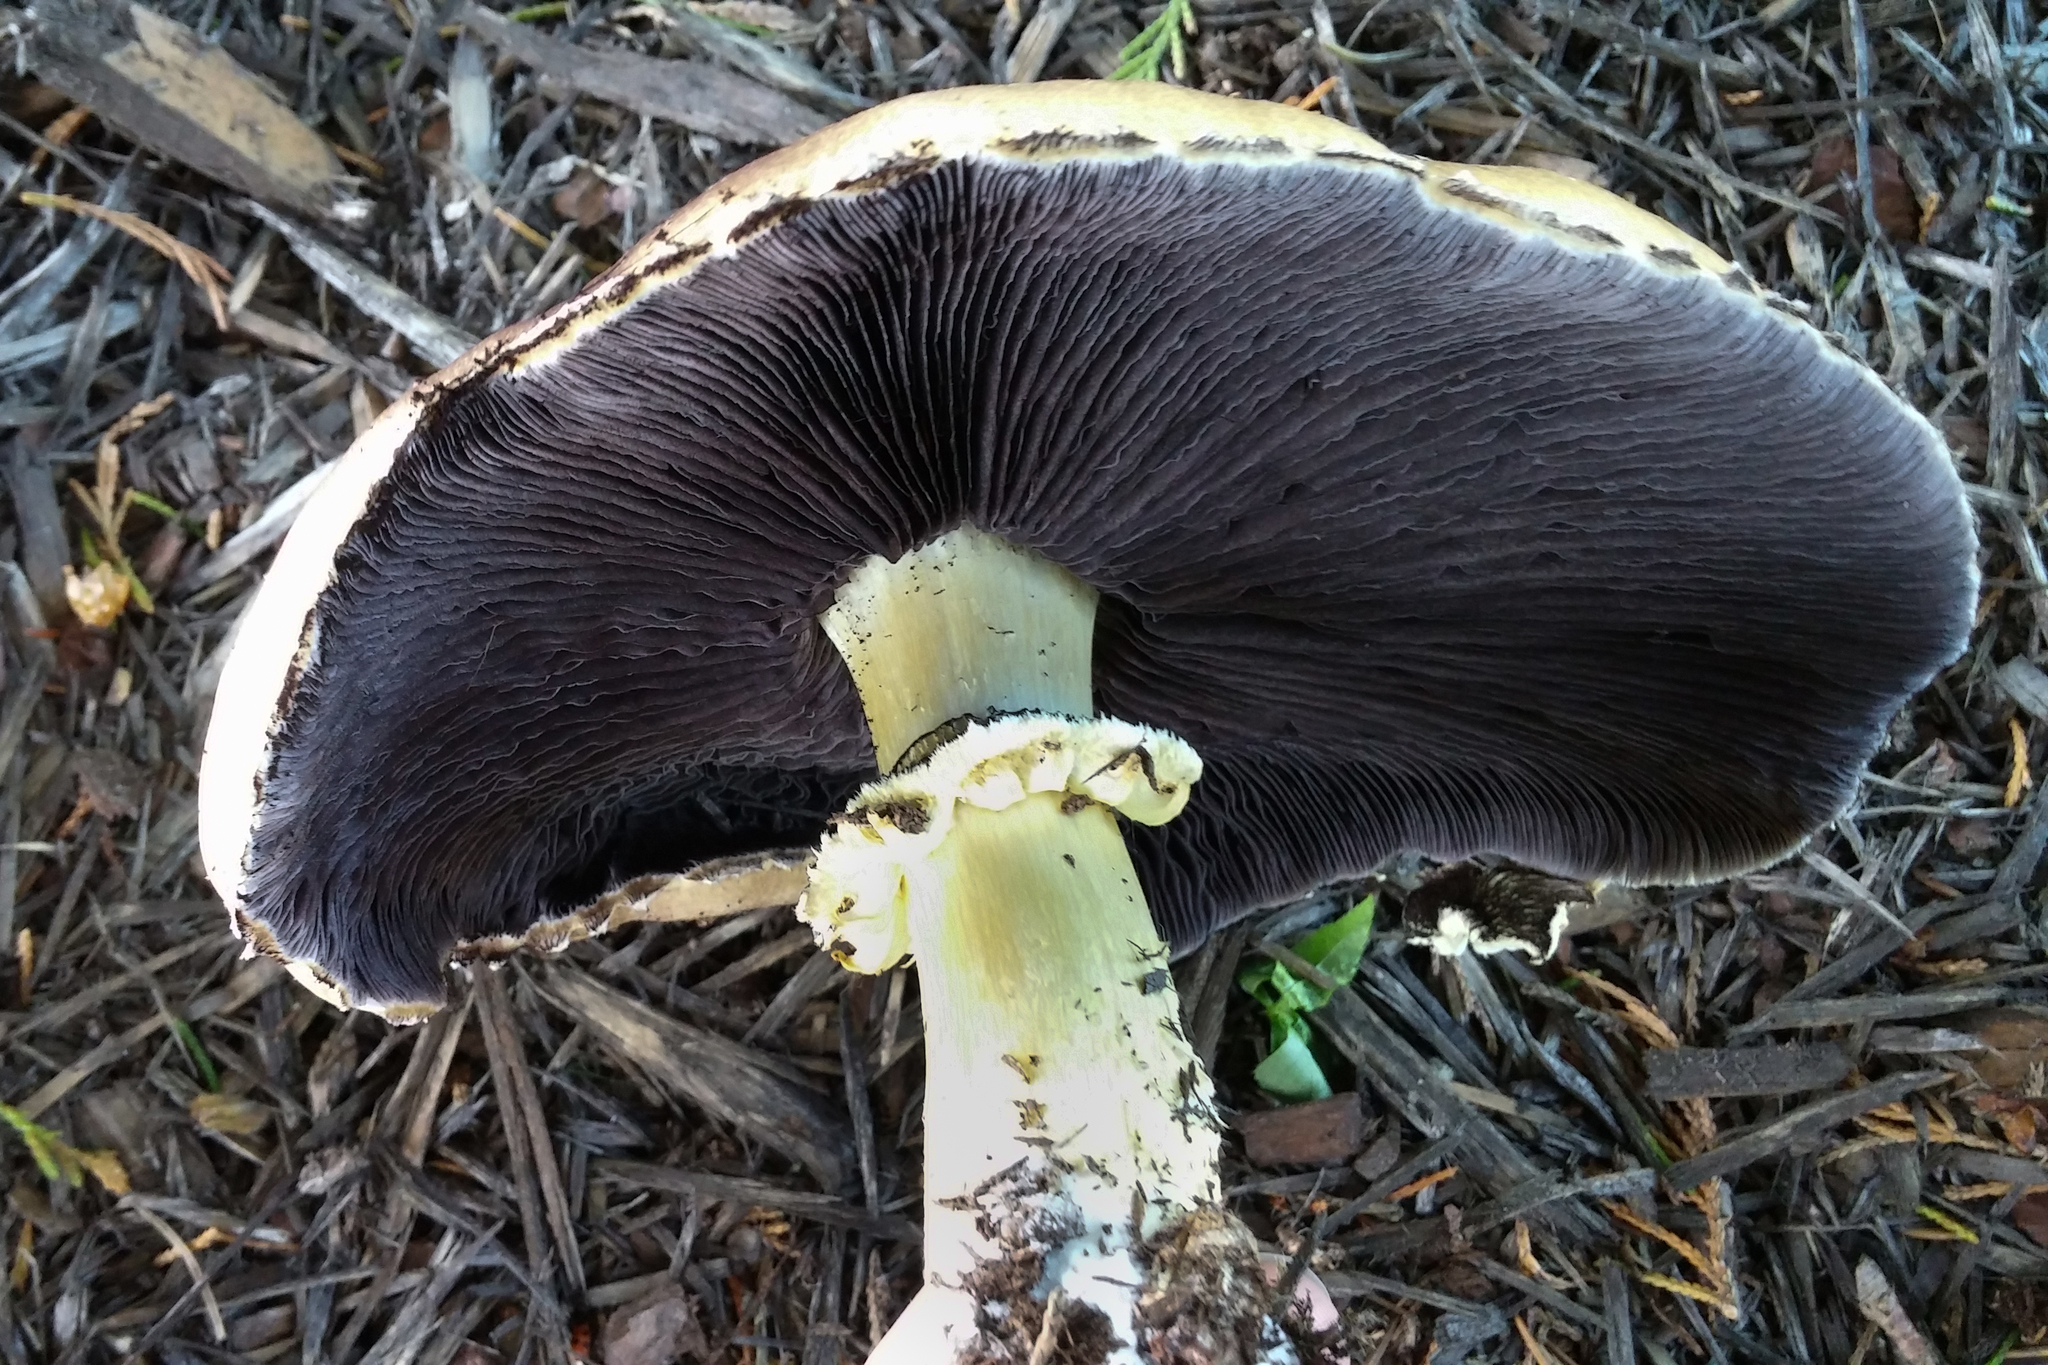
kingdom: Fungi
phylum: Basidiomycota
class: Agaricomycetes
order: Agaricales
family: Strophariaceae
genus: Stropharia
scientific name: Stropharia rugosoannulata
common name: Wine roundhead
